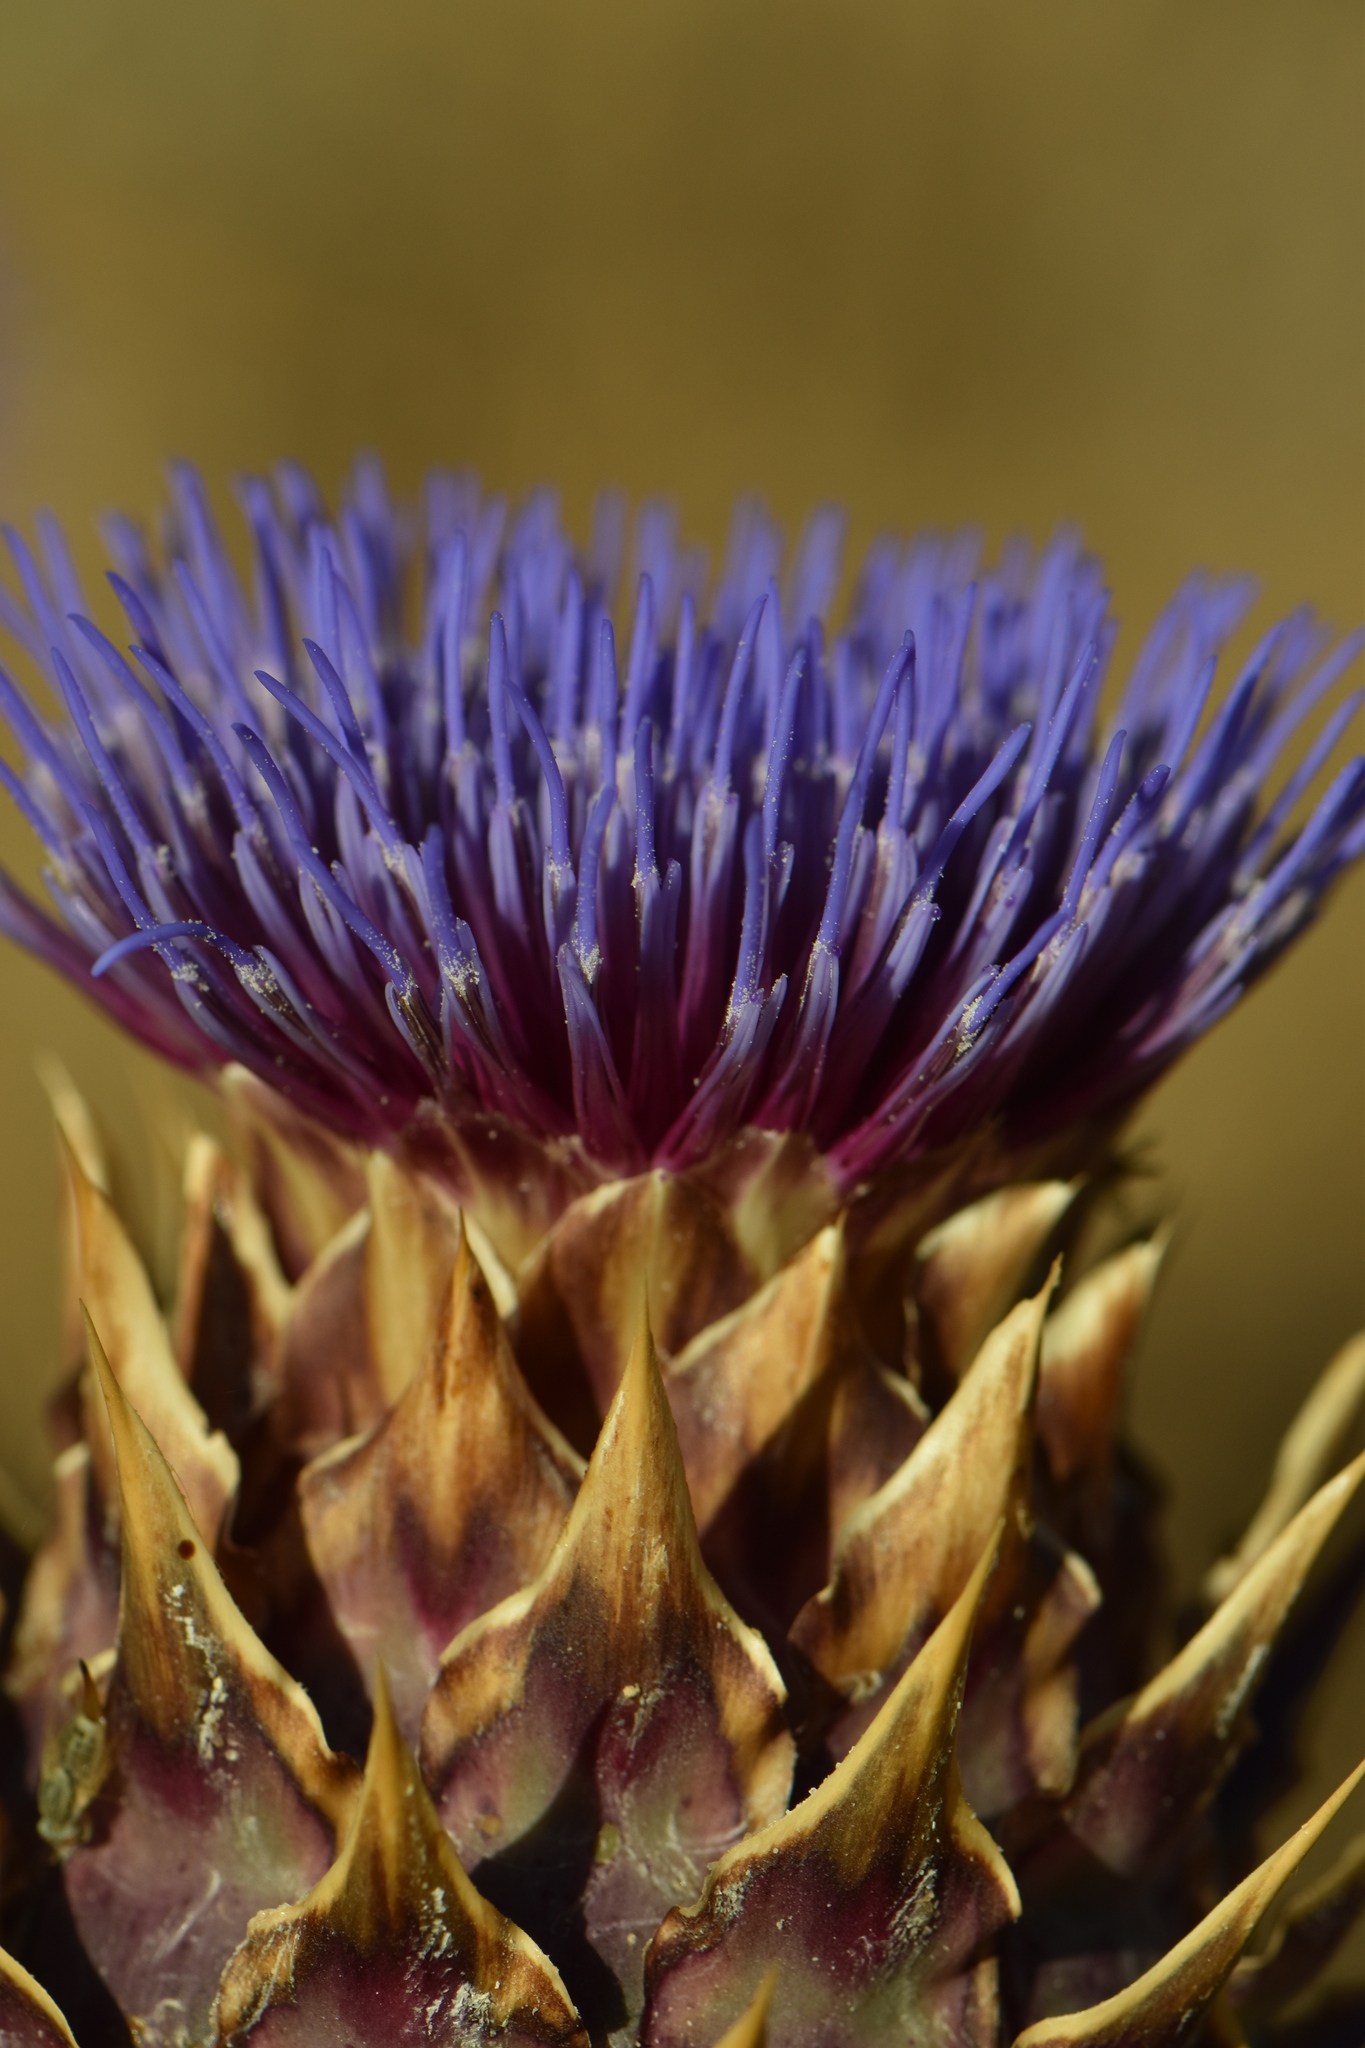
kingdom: Plantae
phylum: Tracheophyta
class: Magnoliopsida
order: Asterales
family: Asteraceae
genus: Cynara
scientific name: Cynara cardunculus
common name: Globe artichoke
